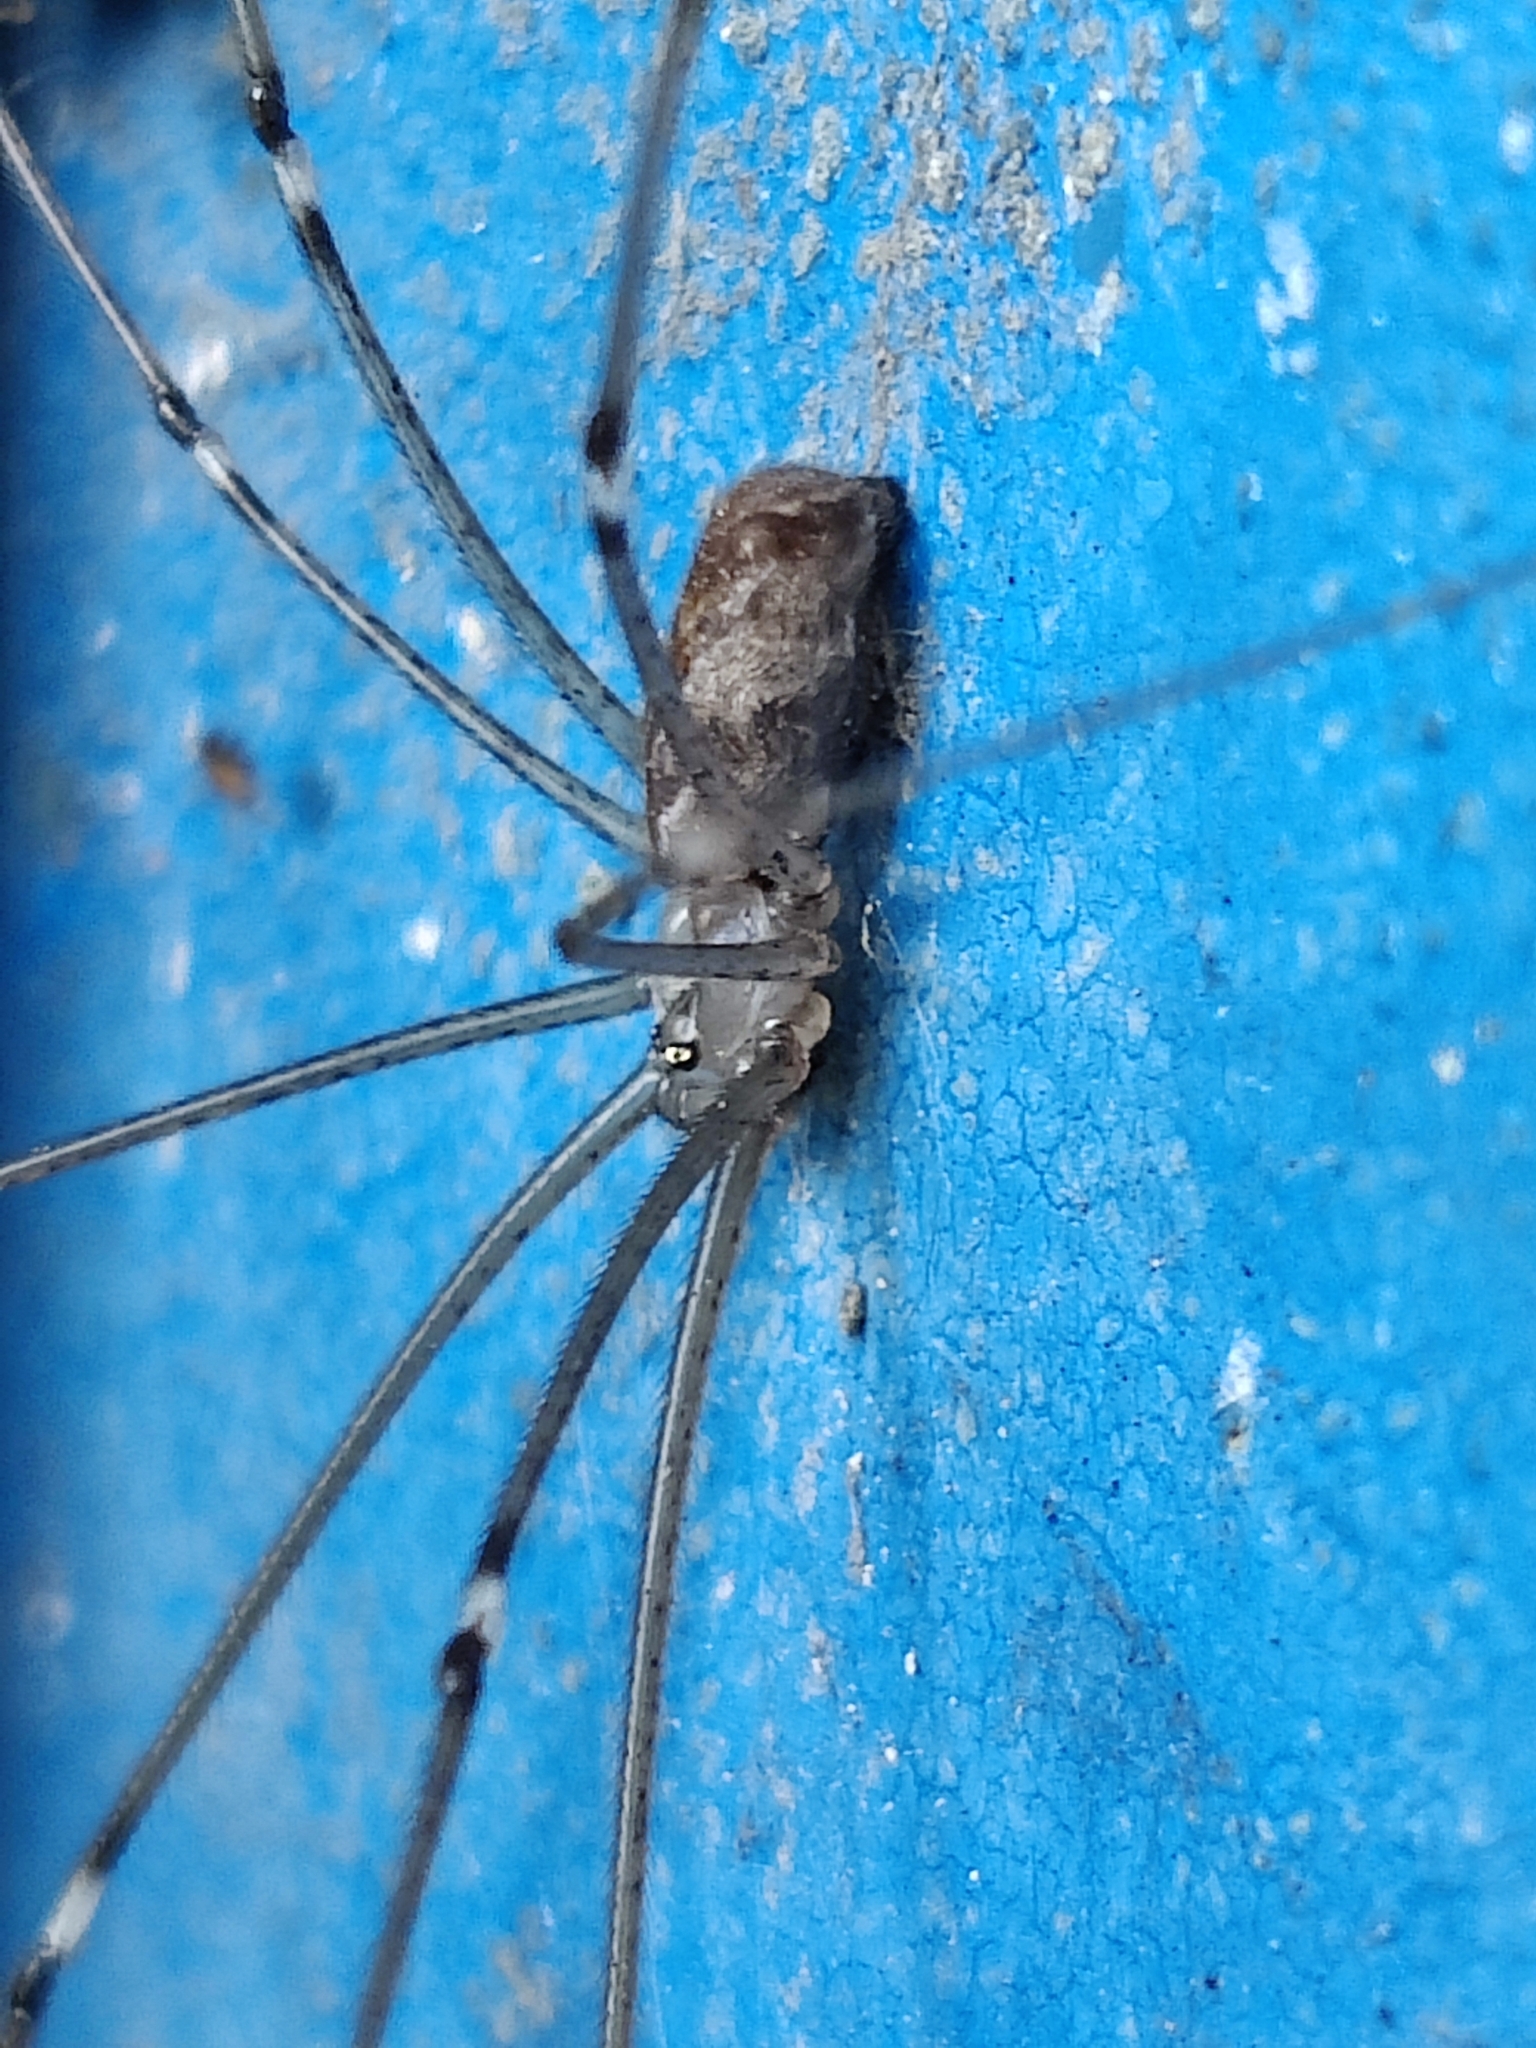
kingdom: Animalia
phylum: Arthropoda
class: Arachnida
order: Araneae
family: Pholcidae
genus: Holocnemus
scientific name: Holocnemus pluchei
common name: Marbled cellar spider
